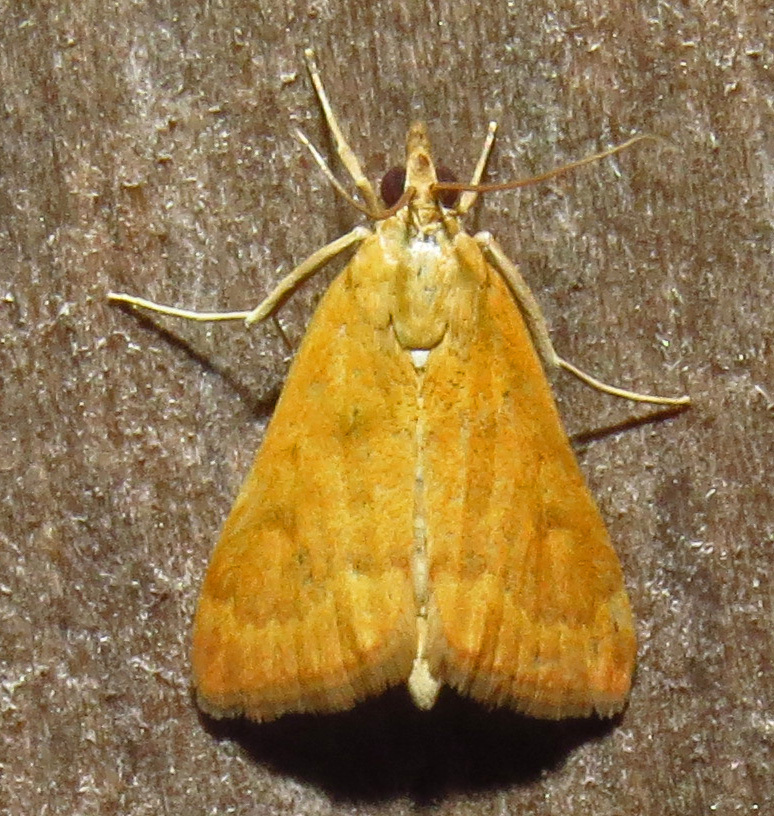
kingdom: Animalia
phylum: Arthropoda
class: Insecta
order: Lepidoptera
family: Crambidae
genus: Achyra
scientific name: Achyra rantalis
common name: Garden webworm
